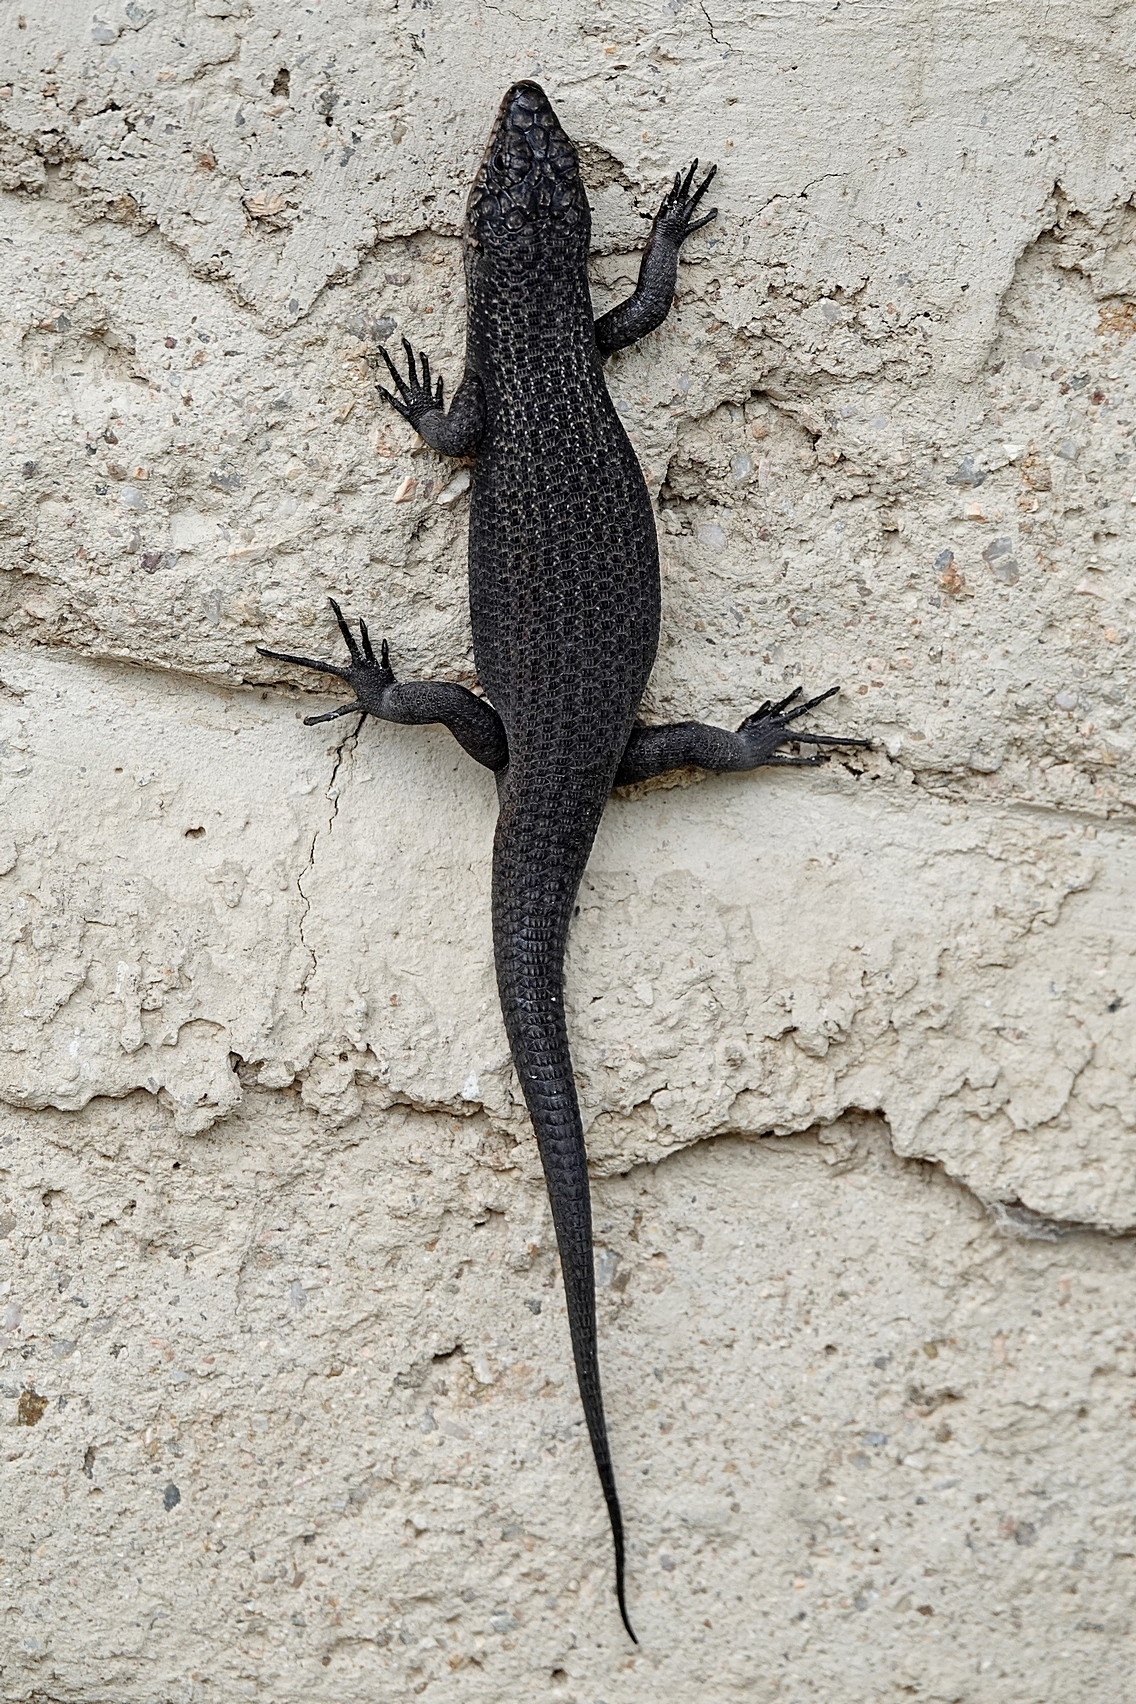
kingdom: Animalia
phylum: Chordata
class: Squamata
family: Scincidae
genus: Egernia
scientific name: Egernia saxatilis
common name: Black crevice-skink
